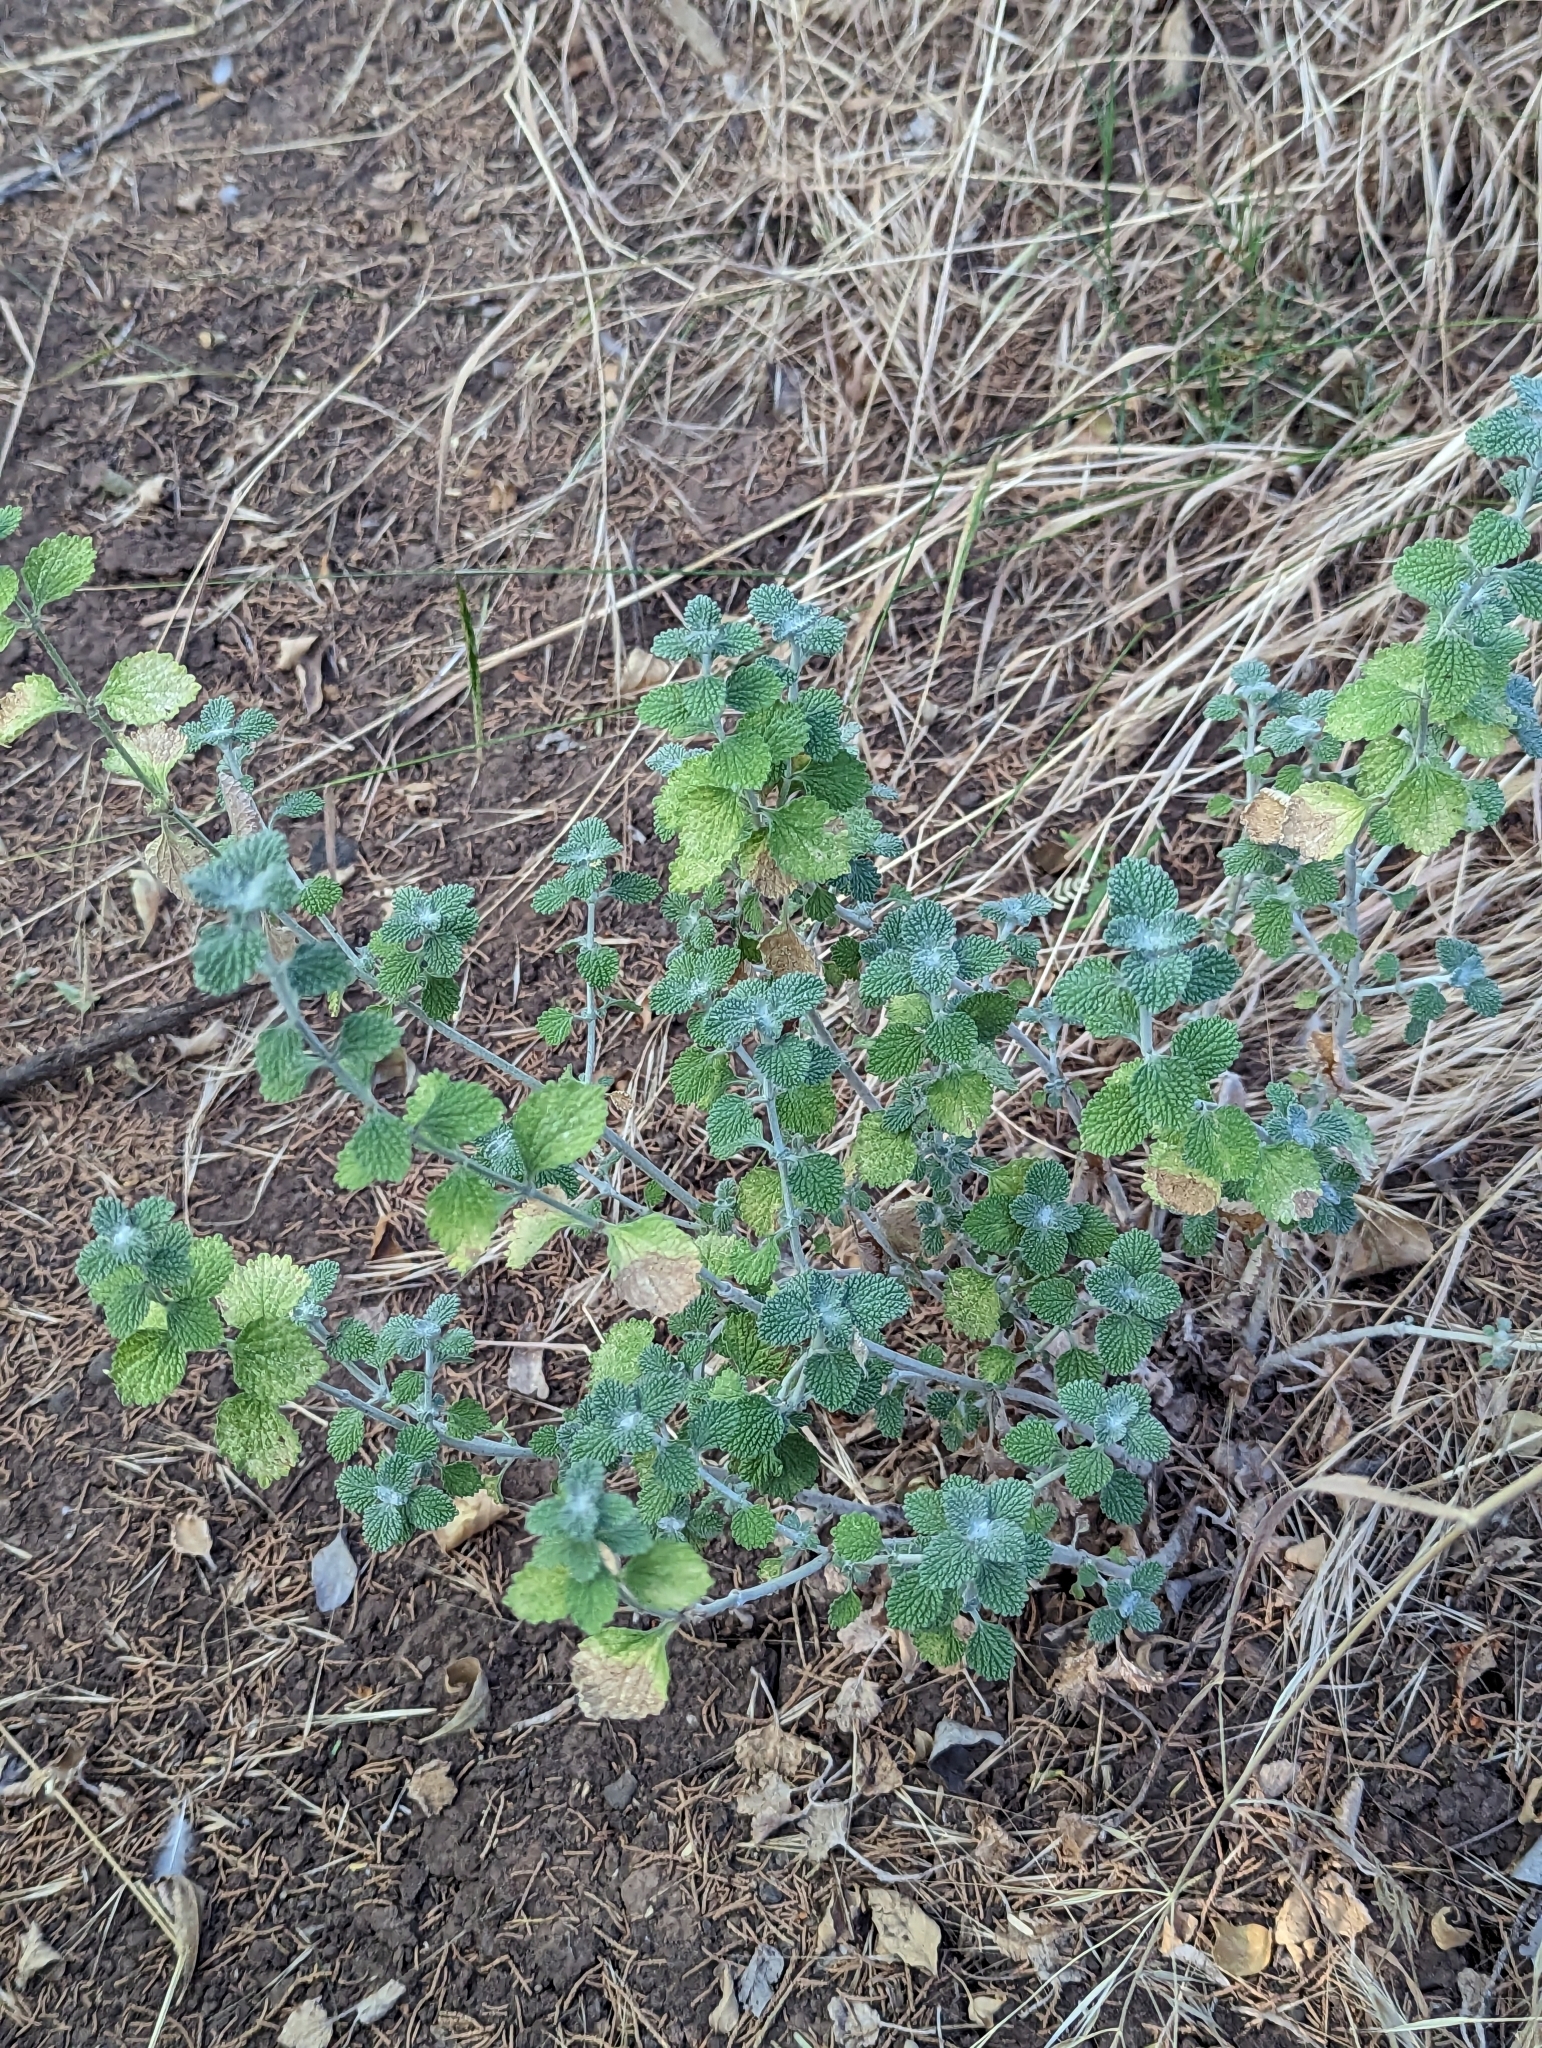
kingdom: Plantae
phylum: Tracheophyta
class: Magnoliopsida
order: Lamiales
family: Lamiaceae
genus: Marrubium
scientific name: Marrubium vulgare
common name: Horehound
